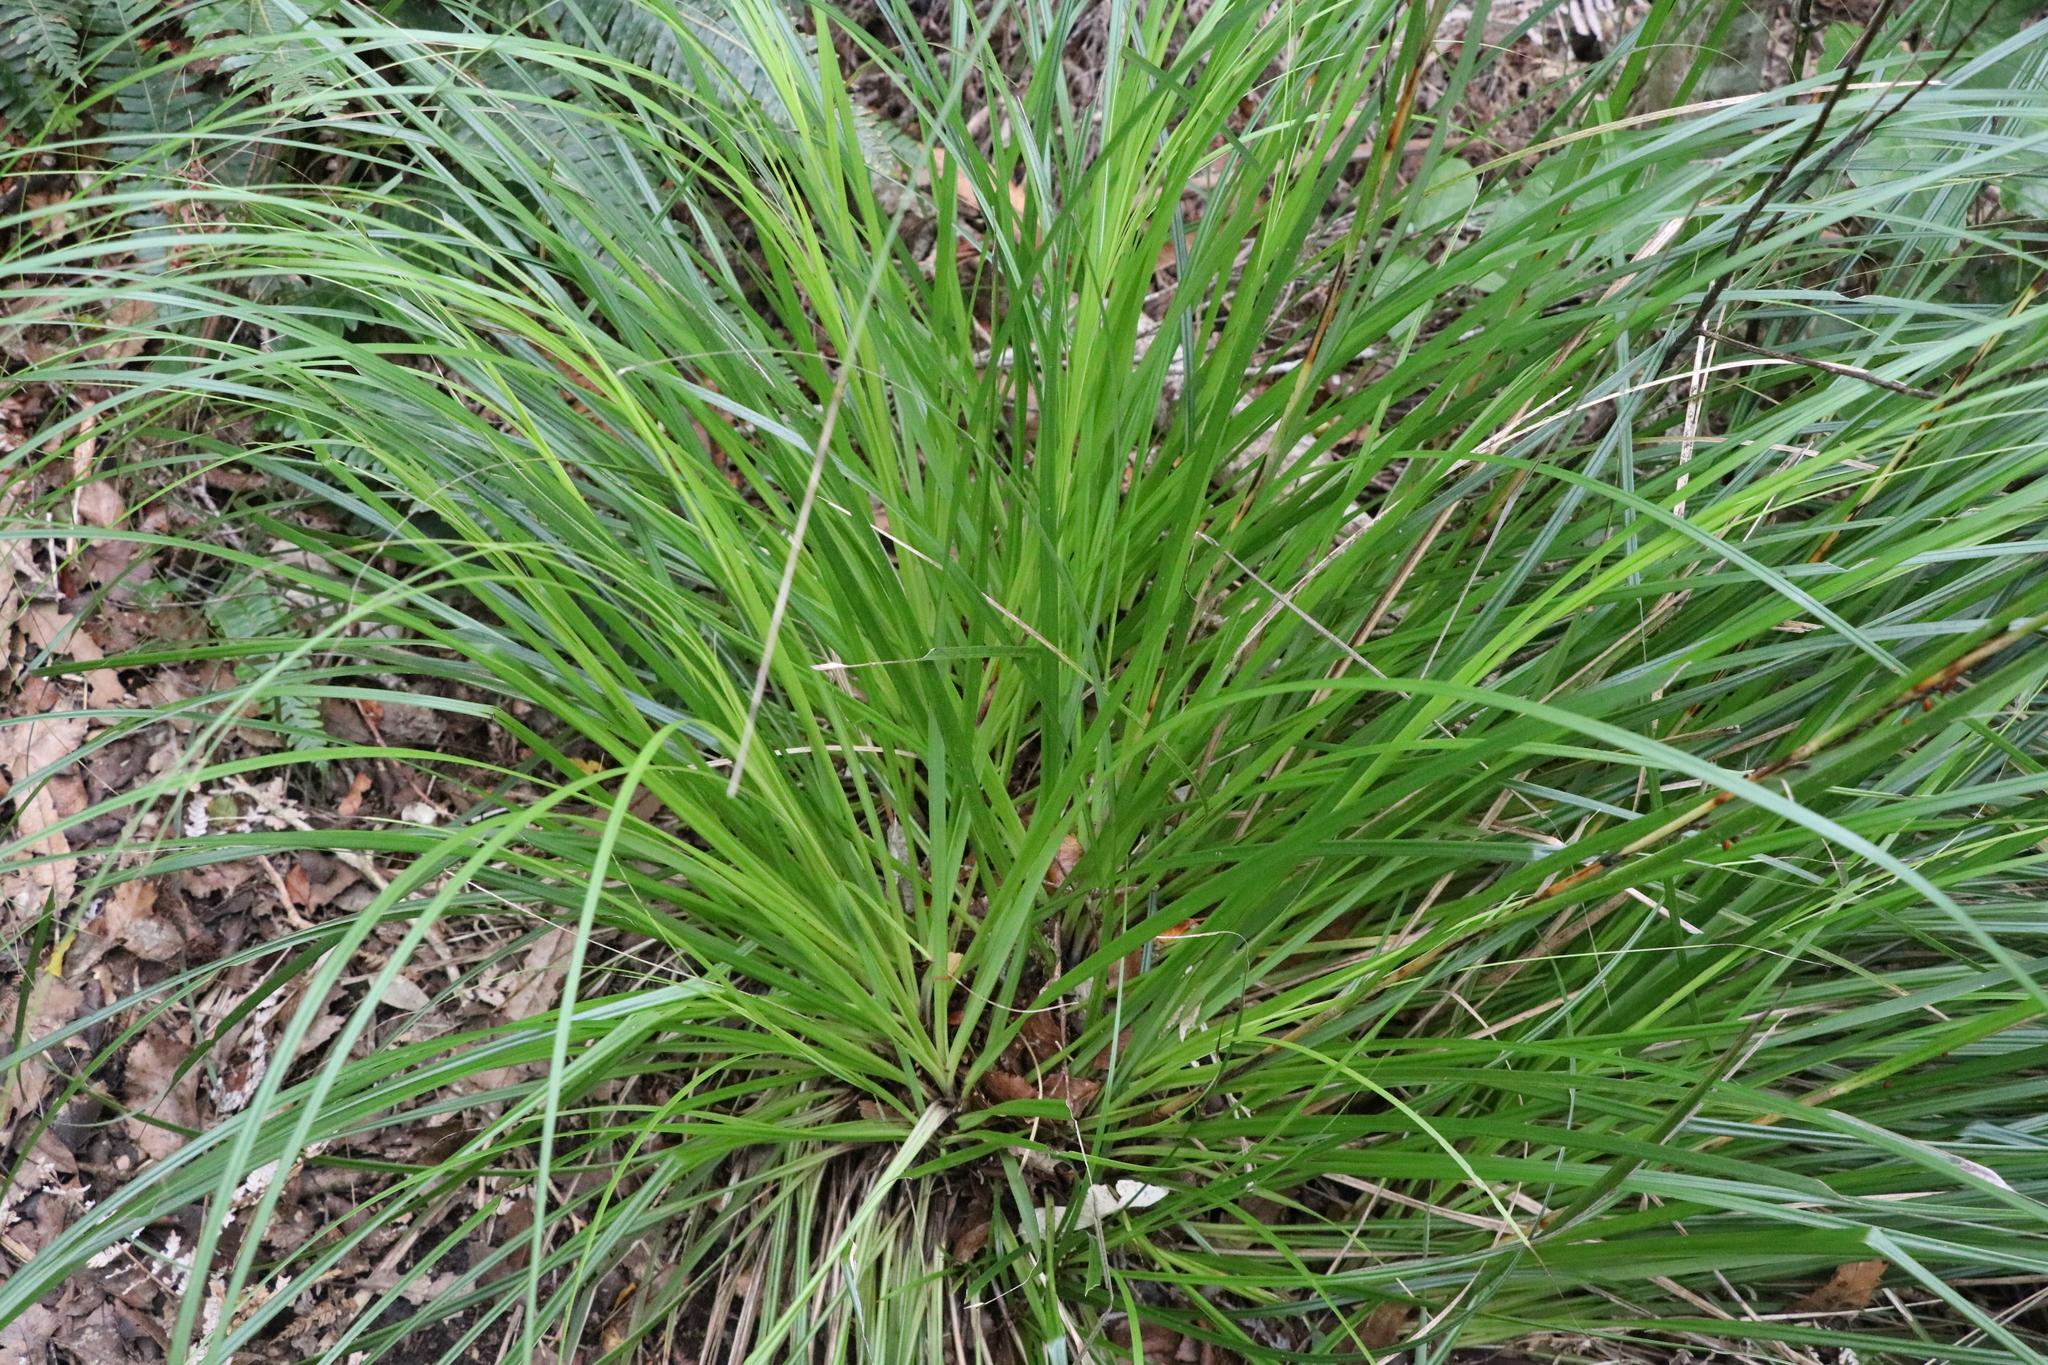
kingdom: Plantae
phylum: Tracheophyta
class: Liliopsida
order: Poales
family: Cyperaceae
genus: Gahnia
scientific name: Gahnia pauciflora
